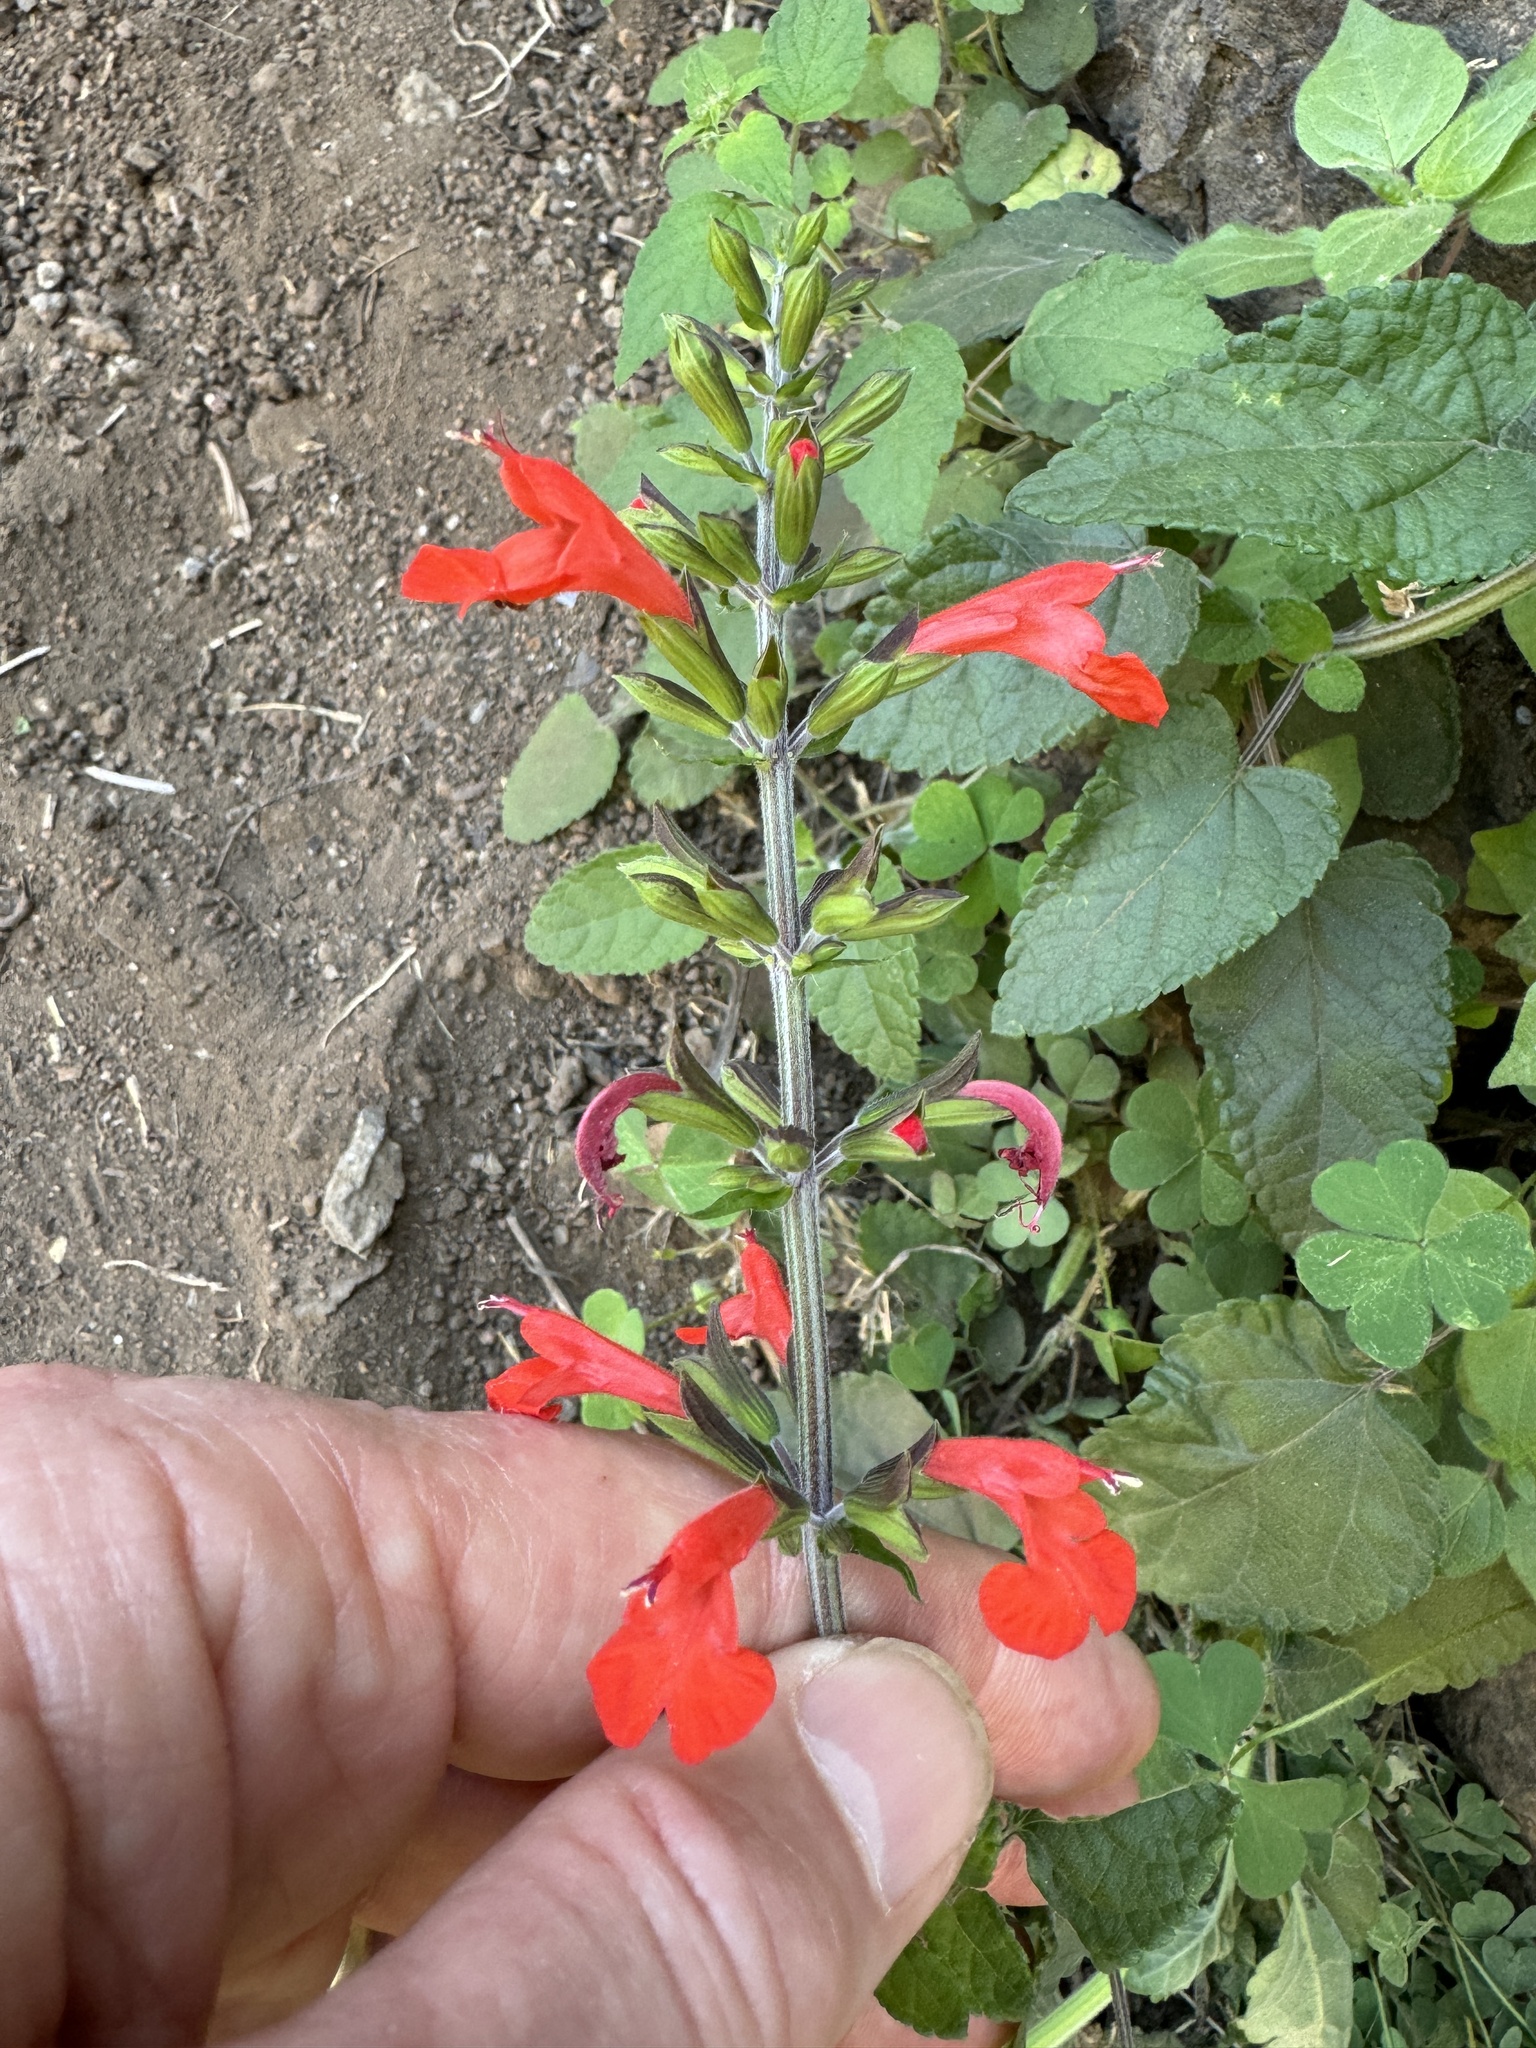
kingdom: Plantae
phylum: Tracheophyta
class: Magnoliopsida
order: Lamiales
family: Lamiaceae
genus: Salvia
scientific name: Salvia coccinea
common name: Blood sage
